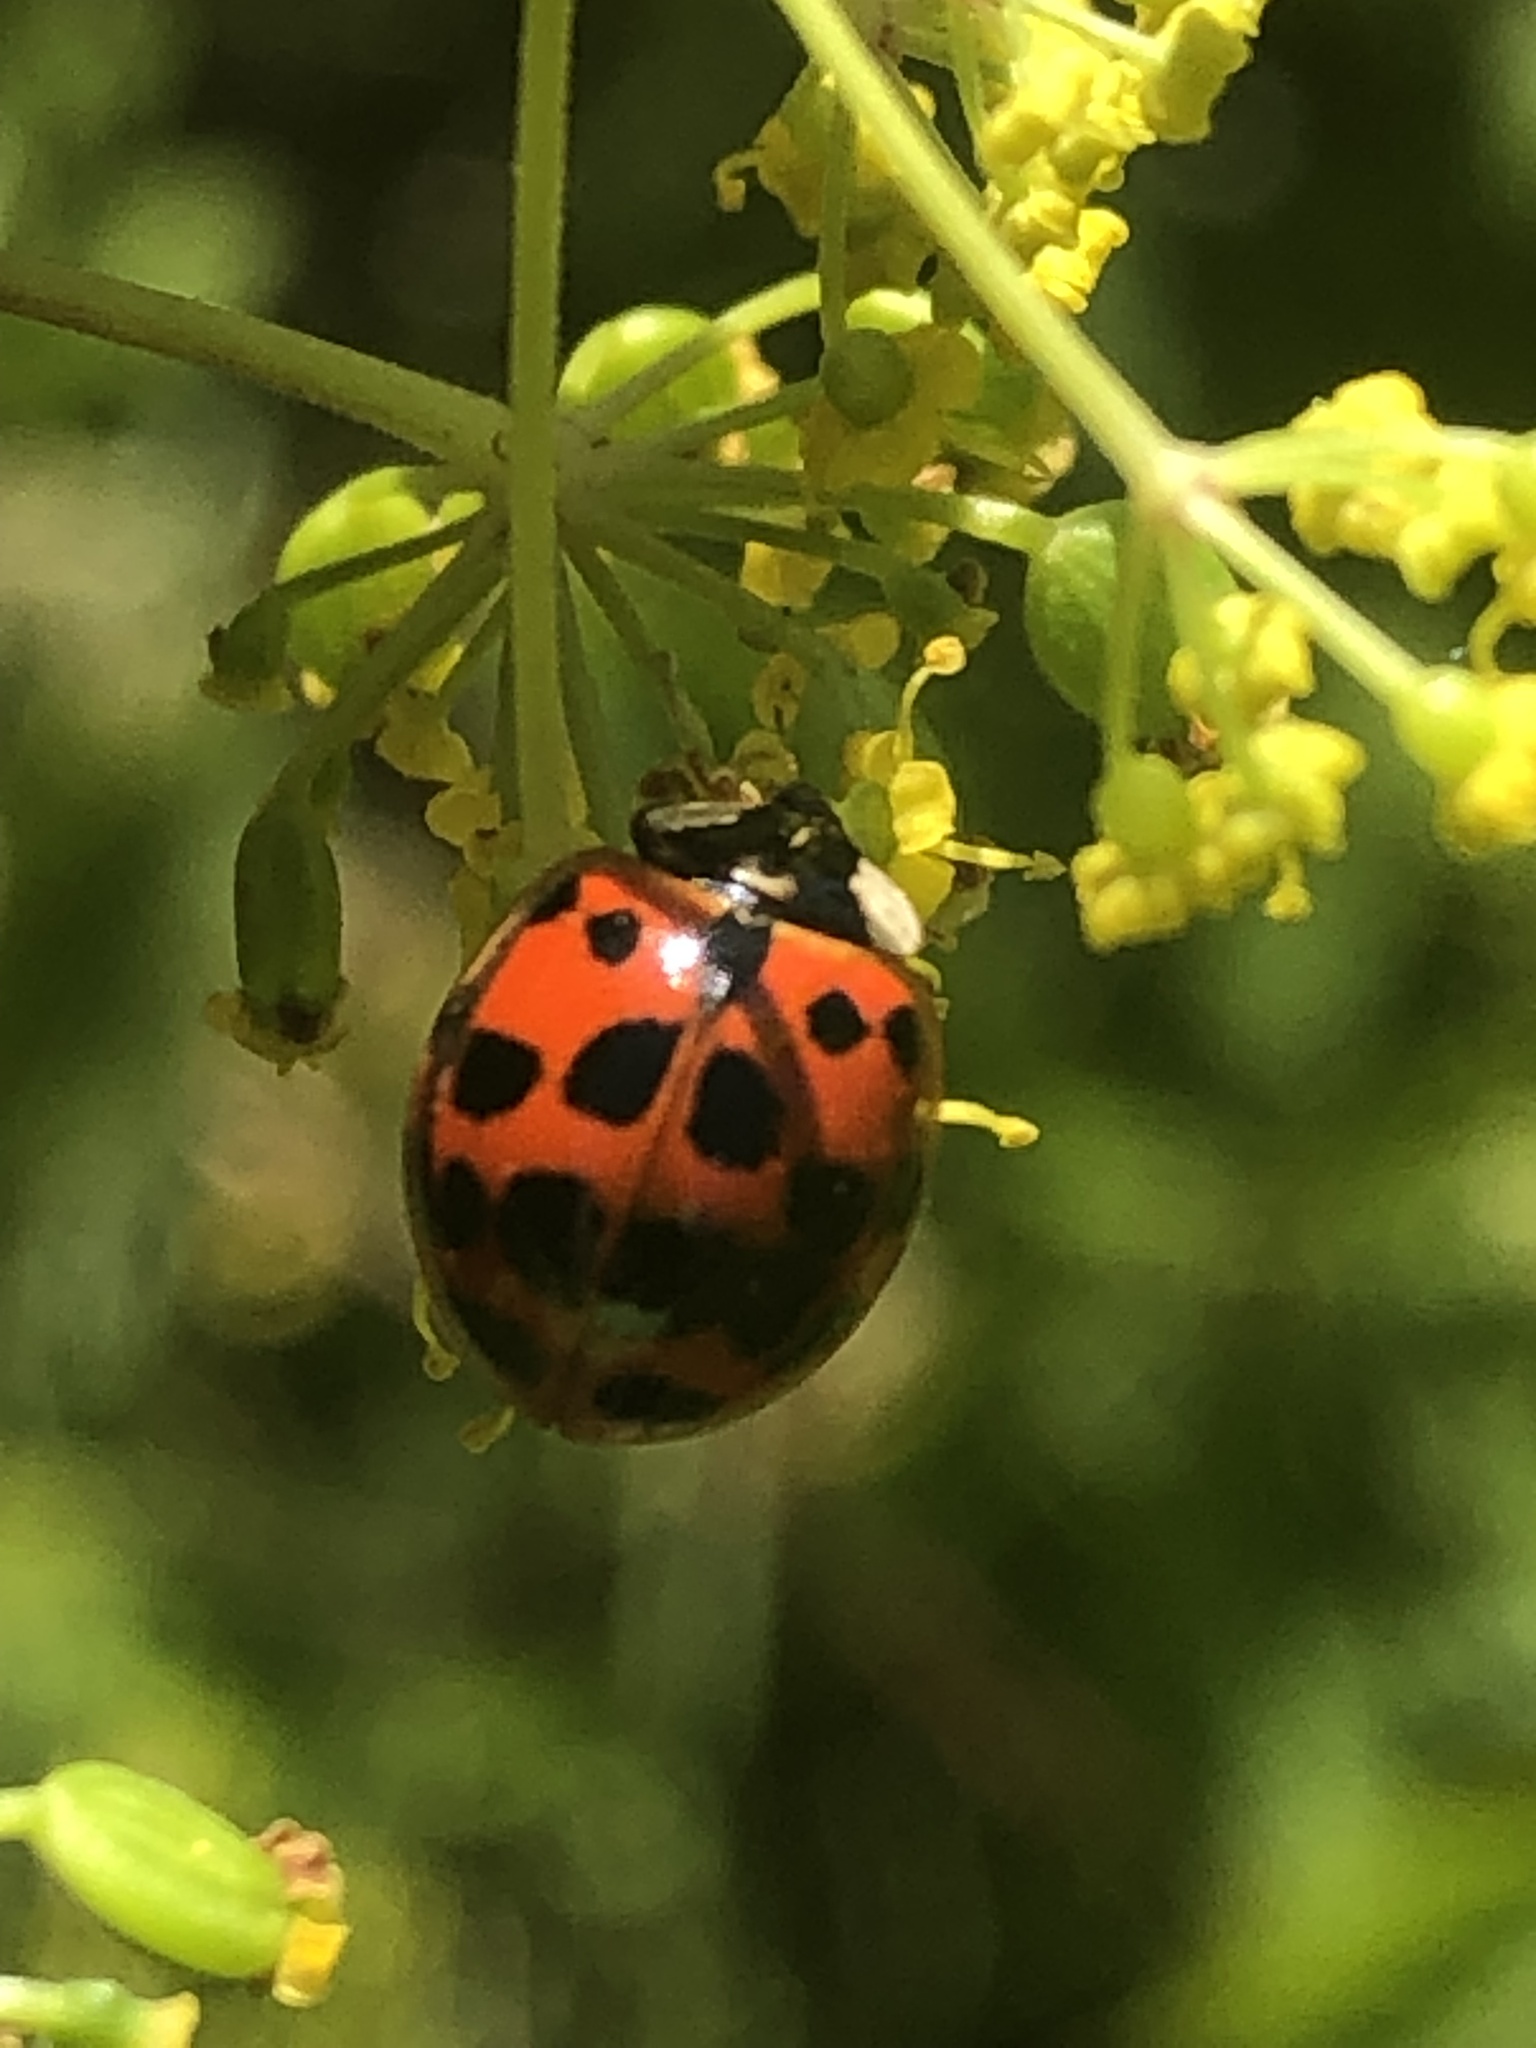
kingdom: Animalia
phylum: Arthropoda
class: Insecta
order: Coleoptera
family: Coccinellidae
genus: Harmonia
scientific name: Harmonia axyridis
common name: Harlequin ladybird
